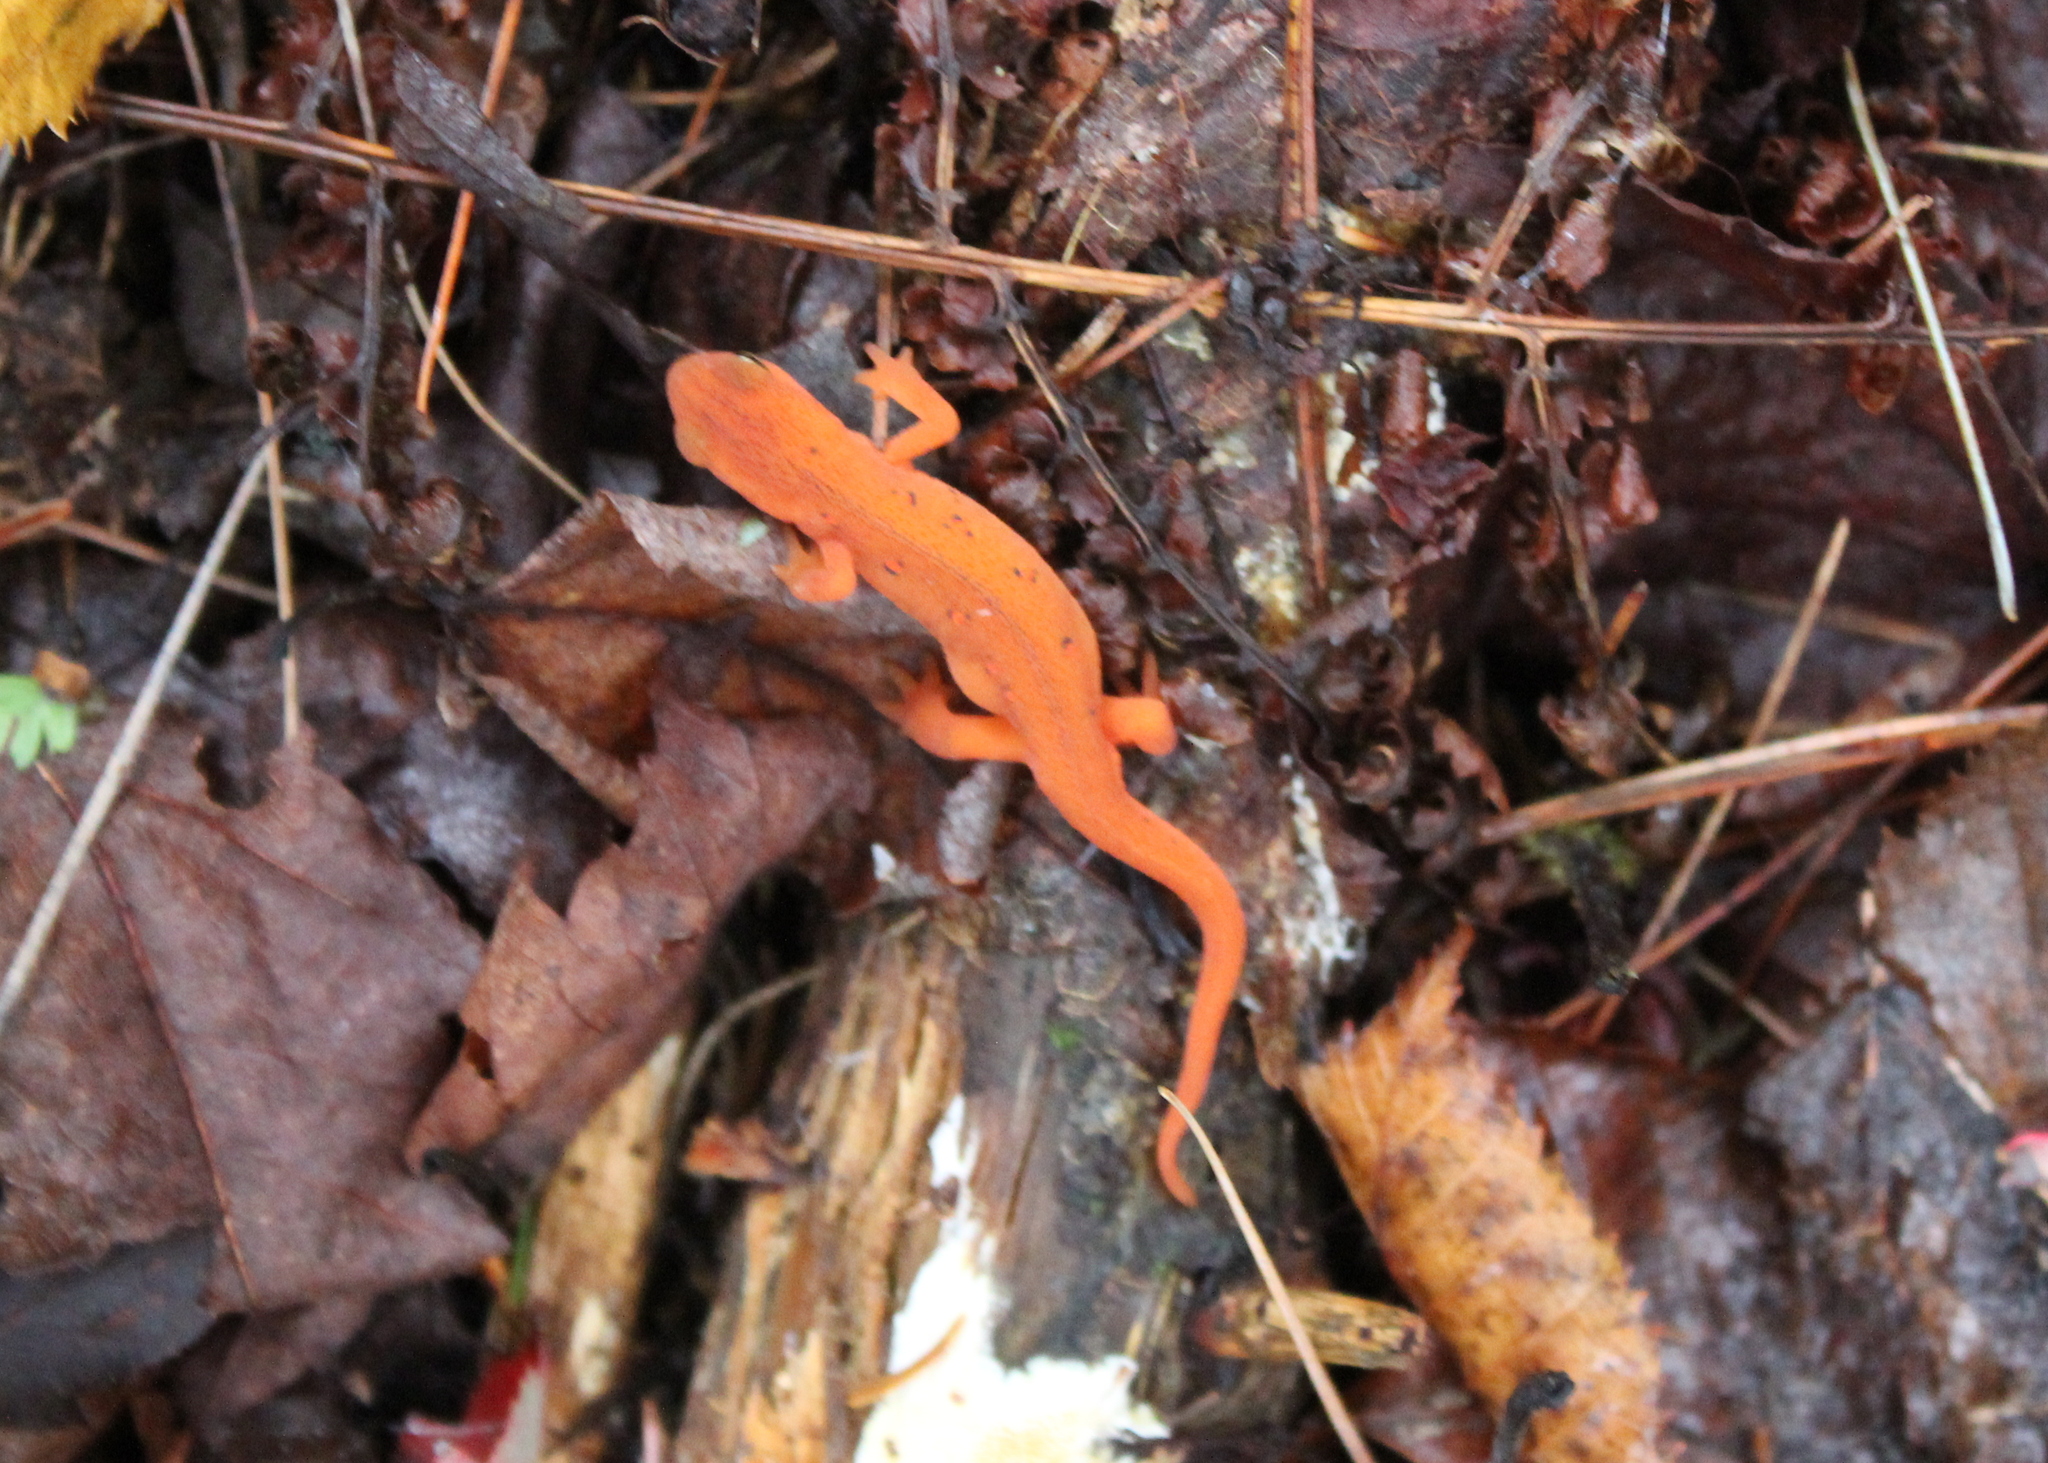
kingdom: Animalia
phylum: Chordata
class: Amphibia
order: Caudata
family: Salamandridae
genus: Notophthalmus
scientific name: Notophthalmus viridescens
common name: Eastern newt
